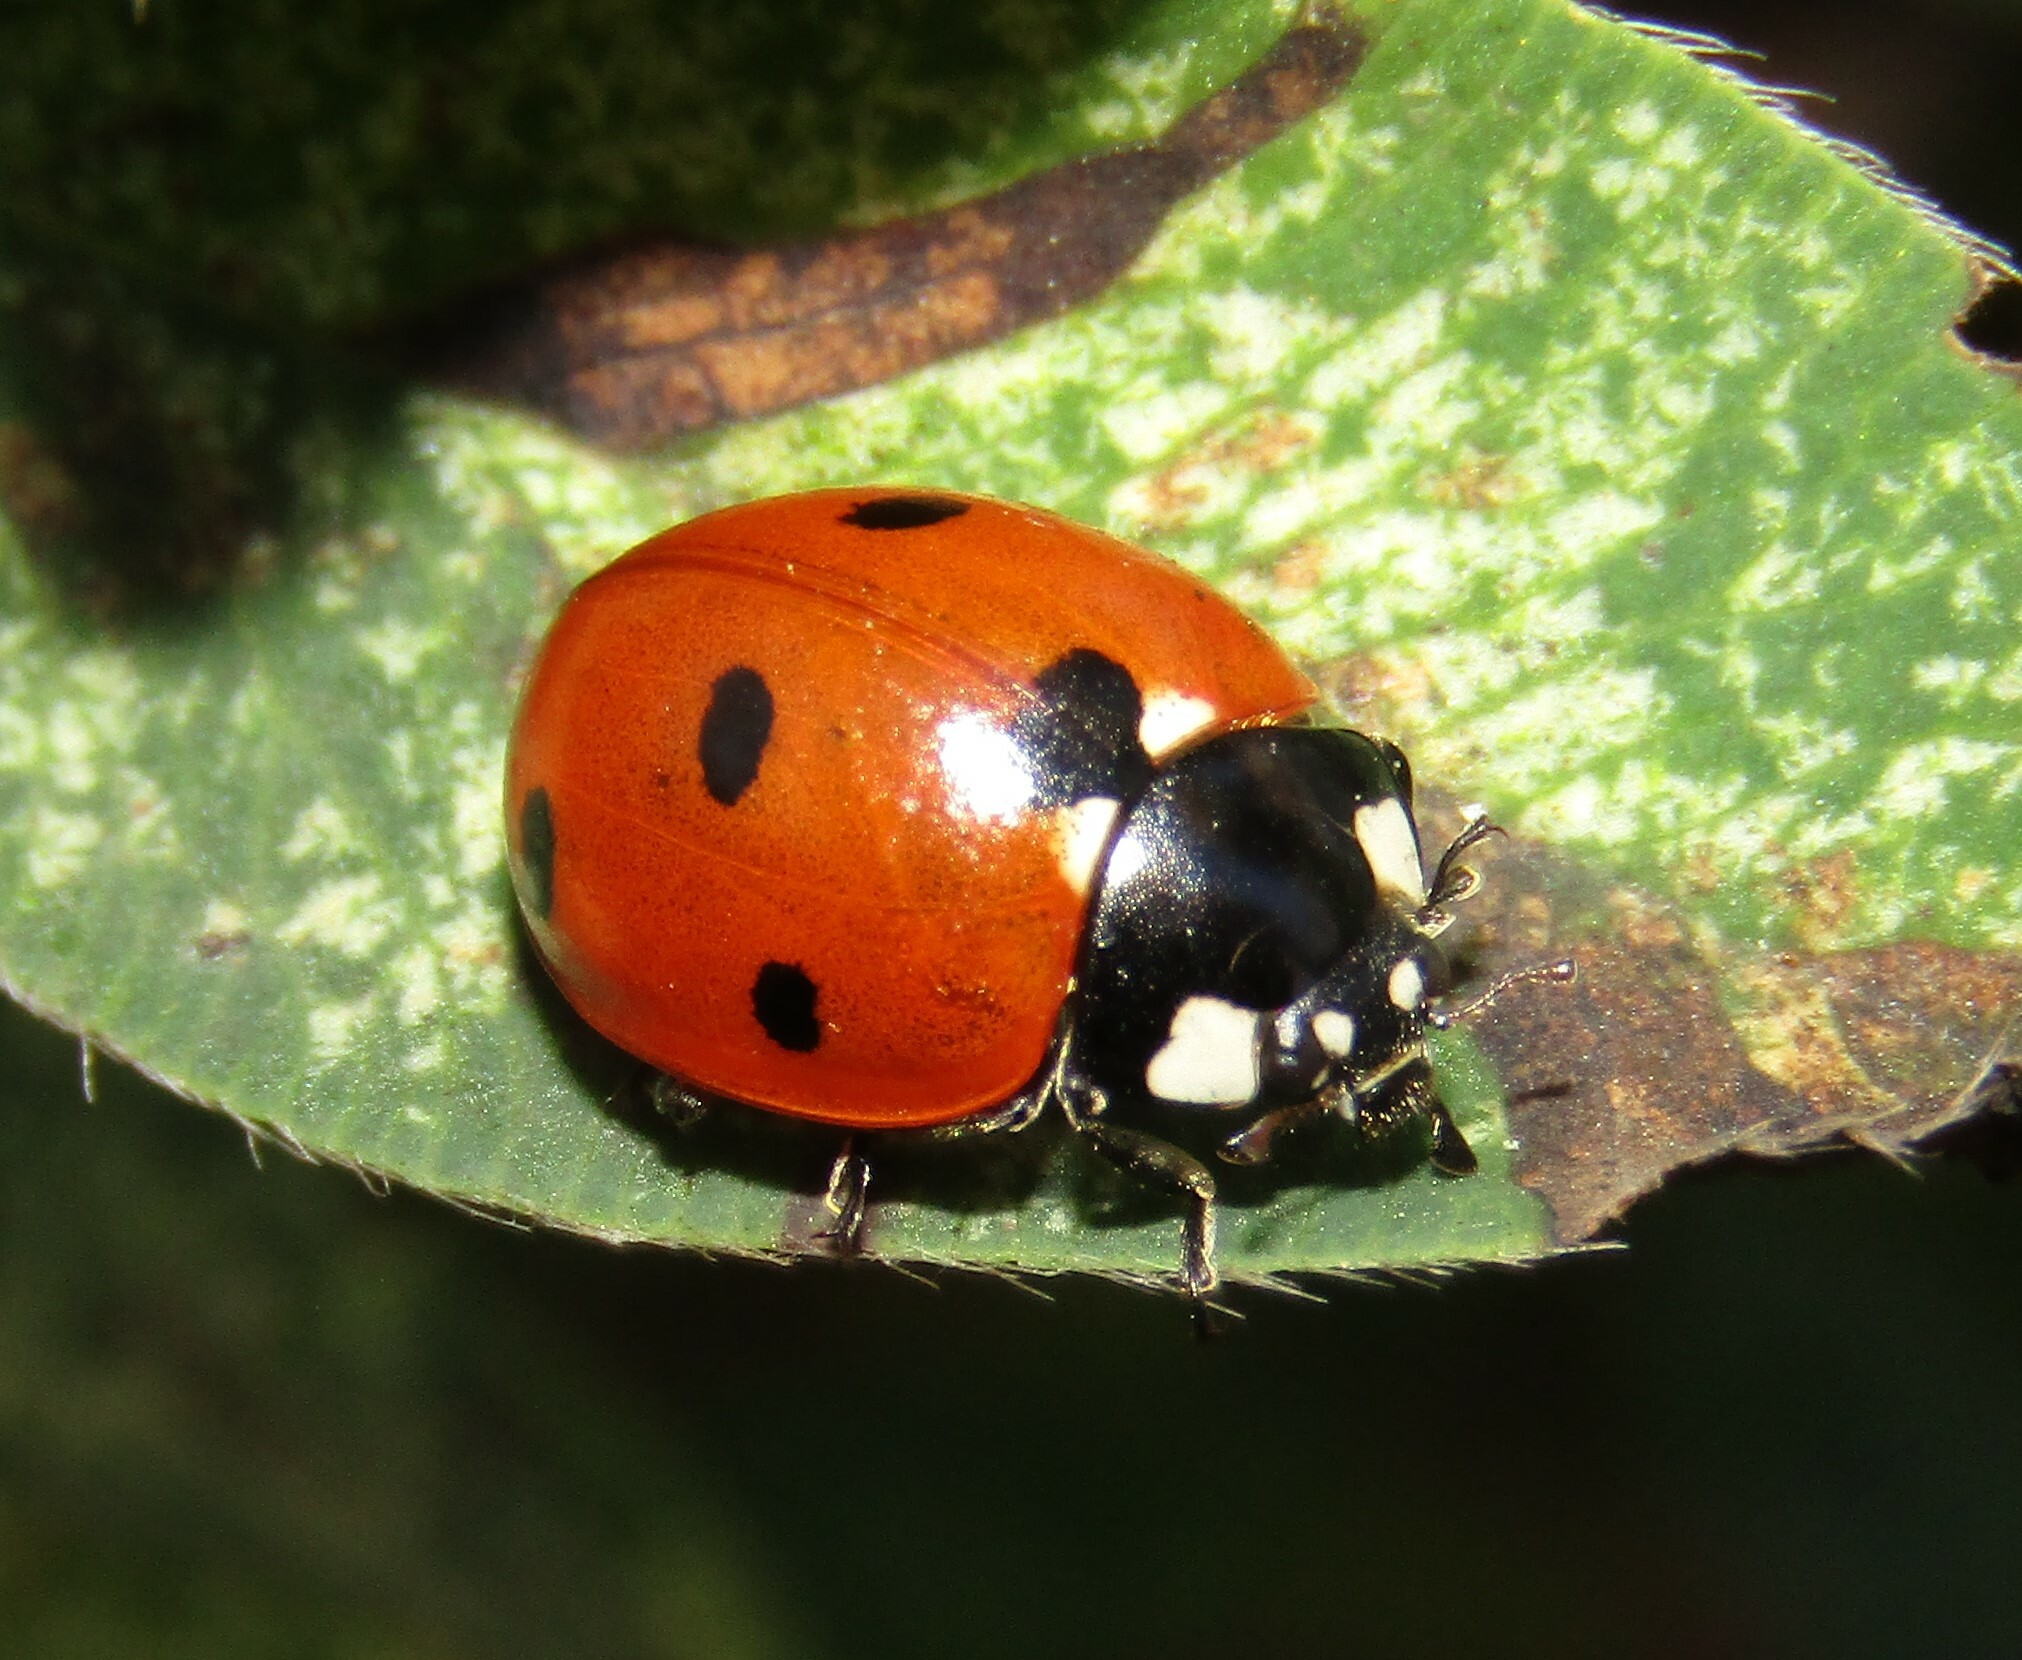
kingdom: Animalia
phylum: Arthropoda
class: Insecta
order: Coleoptera
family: Coccinellidae
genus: Coccinella
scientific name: Coccinella septempunctata
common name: Sevenspotted lady beetle
